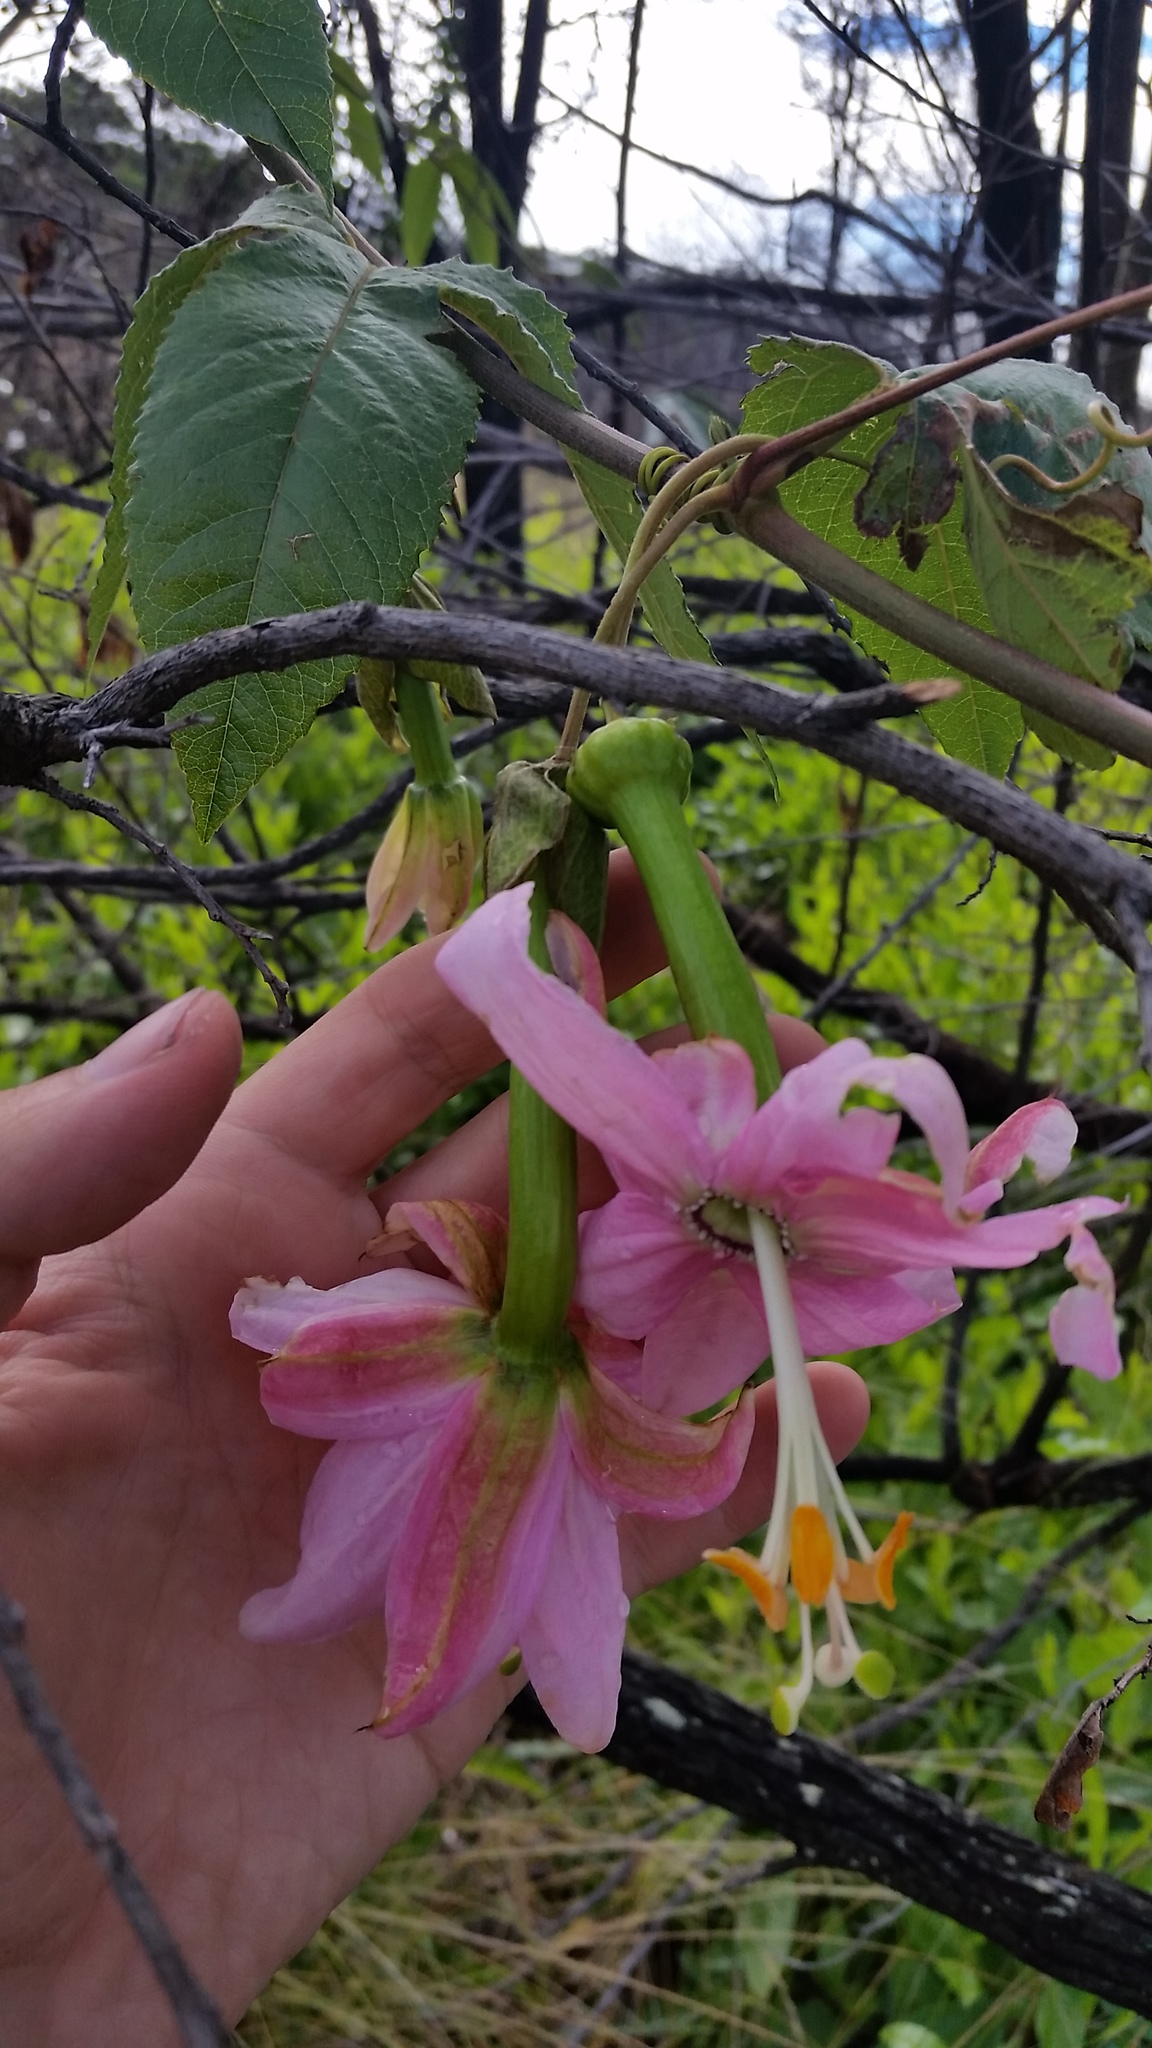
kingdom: Plantae
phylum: Tracheophyta
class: Magnoliopsida
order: Malpighiales
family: Passifloraceae
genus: Passiflora
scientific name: Passiflora tarminiana
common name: Banana poka
